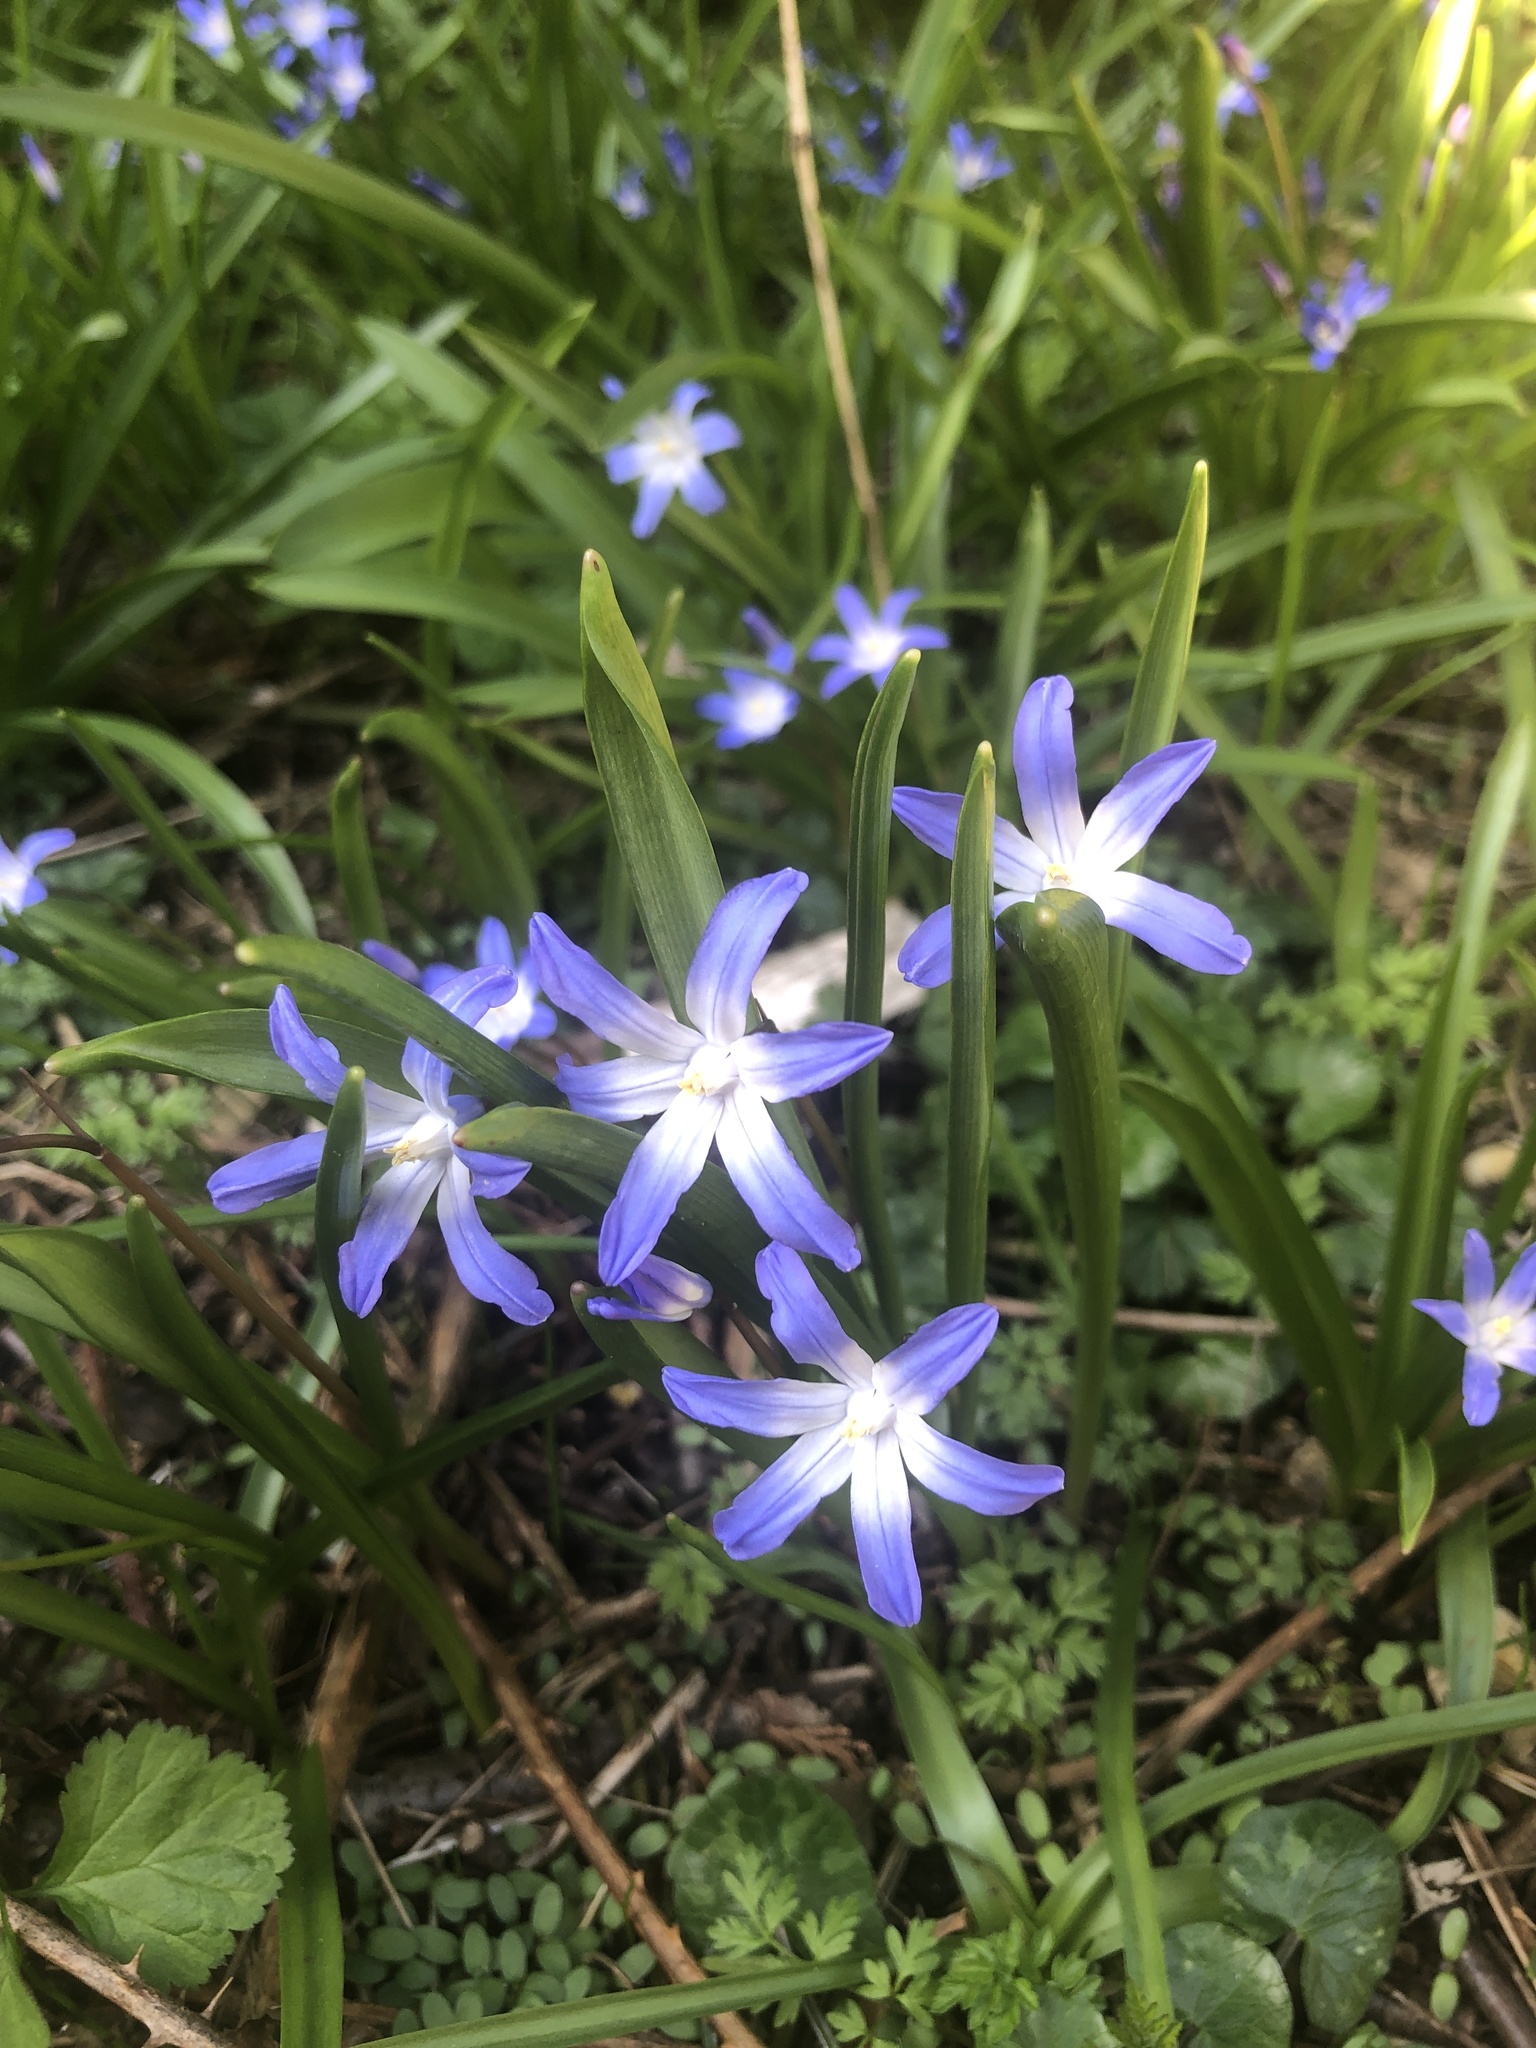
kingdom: Plantae
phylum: Tracheophyta
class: Liliopsida
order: Asparagales
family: Asparagaceae
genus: Scilla
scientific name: Scilla forbesii
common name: Glory-of-the-snow
